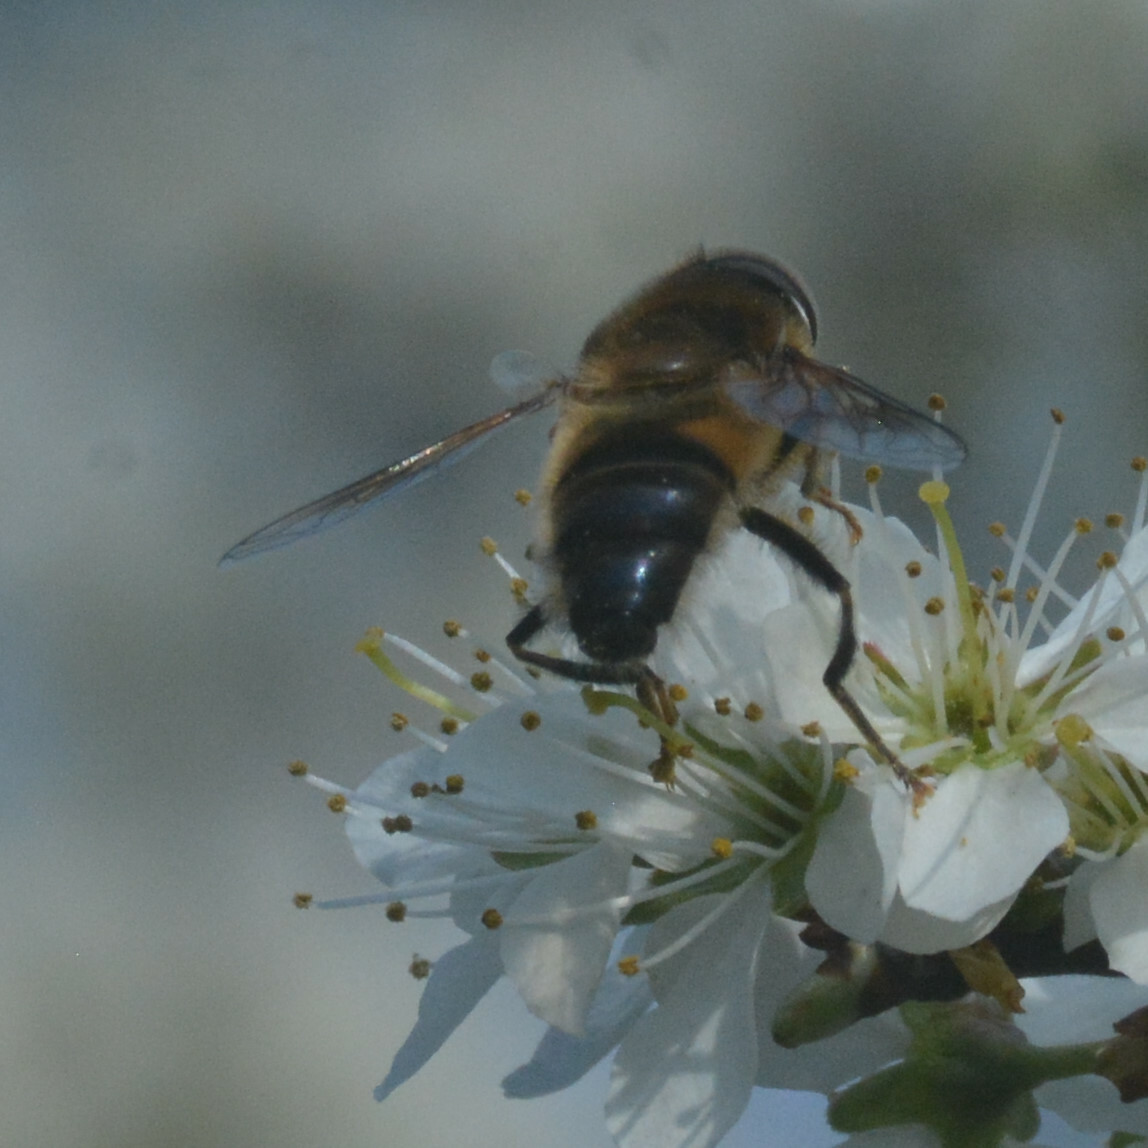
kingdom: Animalia
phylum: Arthropoda
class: Insecta
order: Diptera
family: Syrphidae
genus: Eristalis
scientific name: Eristalis pertinax
